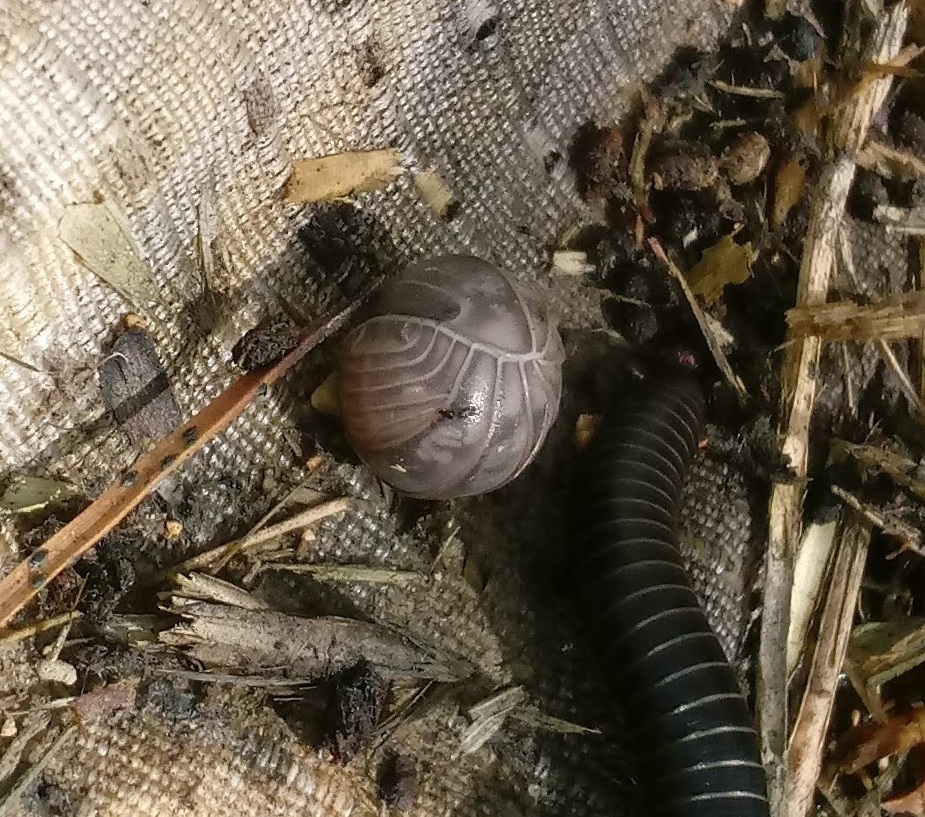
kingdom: Animalia
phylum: Arthropoda
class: Malacostraca
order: Isopoda
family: Armadillidae
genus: Armadillo
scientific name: Armadillo officinalis
